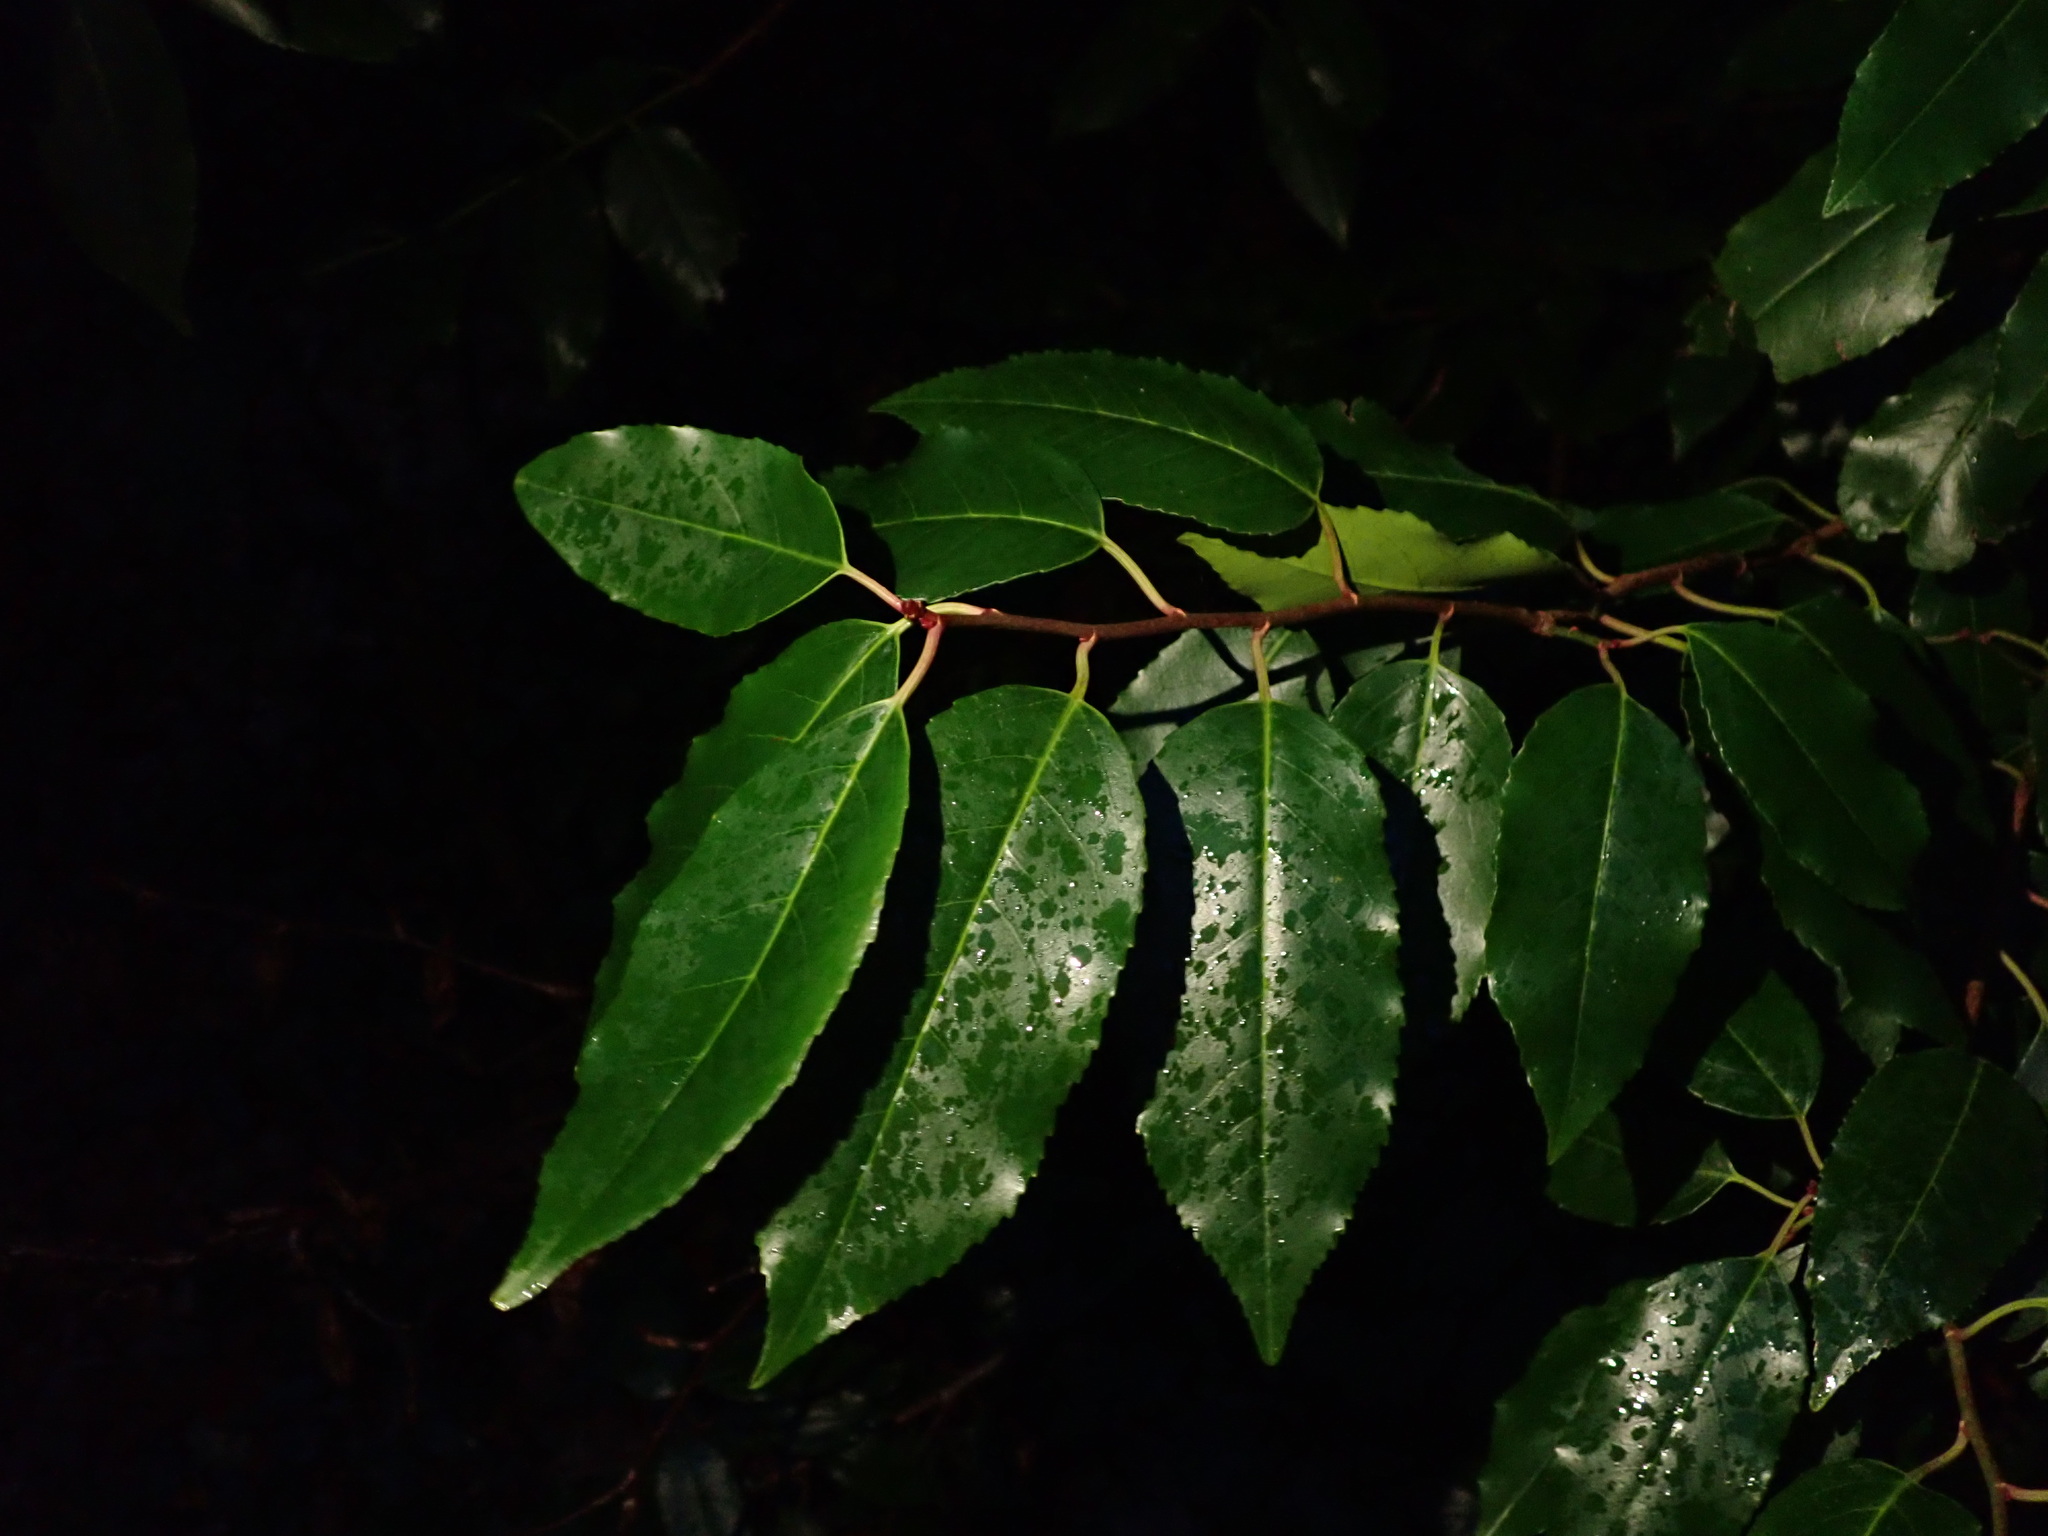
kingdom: Plantae
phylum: Tracheophyta
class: Magnoliopsida
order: Rosales
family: Rosaceae
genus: Prunus
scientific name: Prunus lusitanica
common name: Portugal laurel
